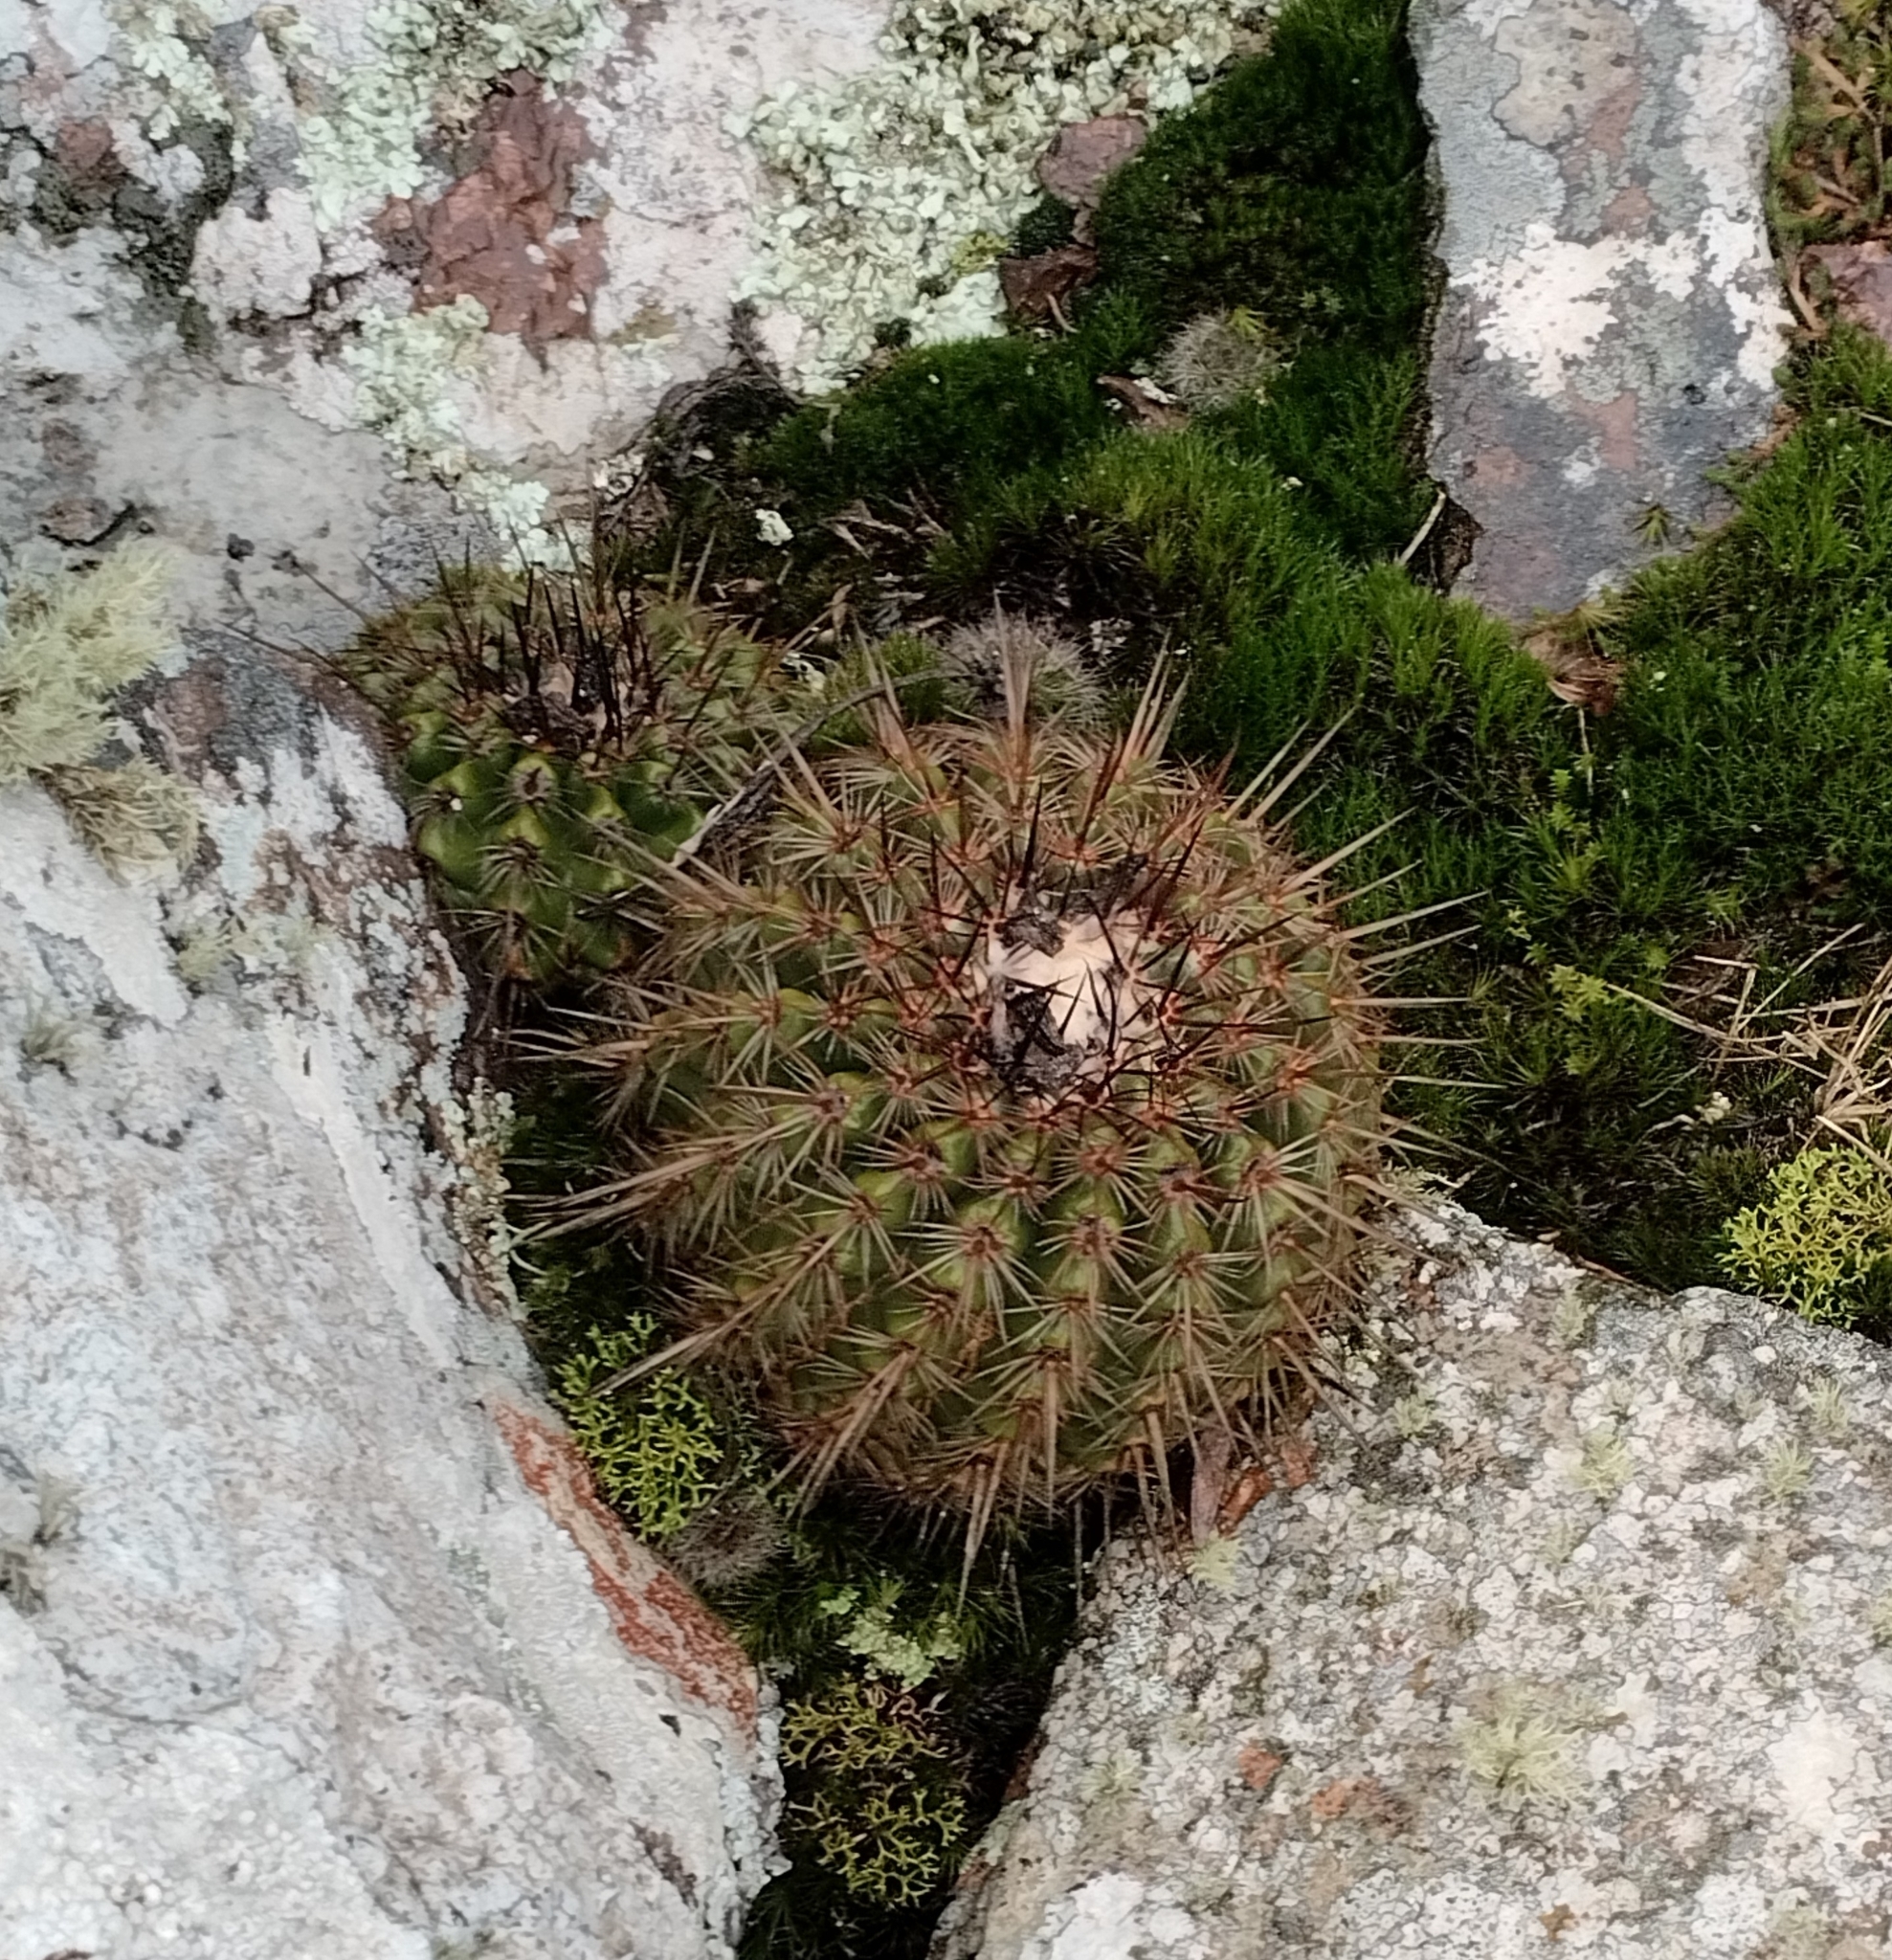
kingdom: Plantae
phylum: Tracheophyta
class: Magnoliopsida
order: Caryophyllales
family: Cactaceae
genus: Parodia
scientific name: Parodia mammulosa
